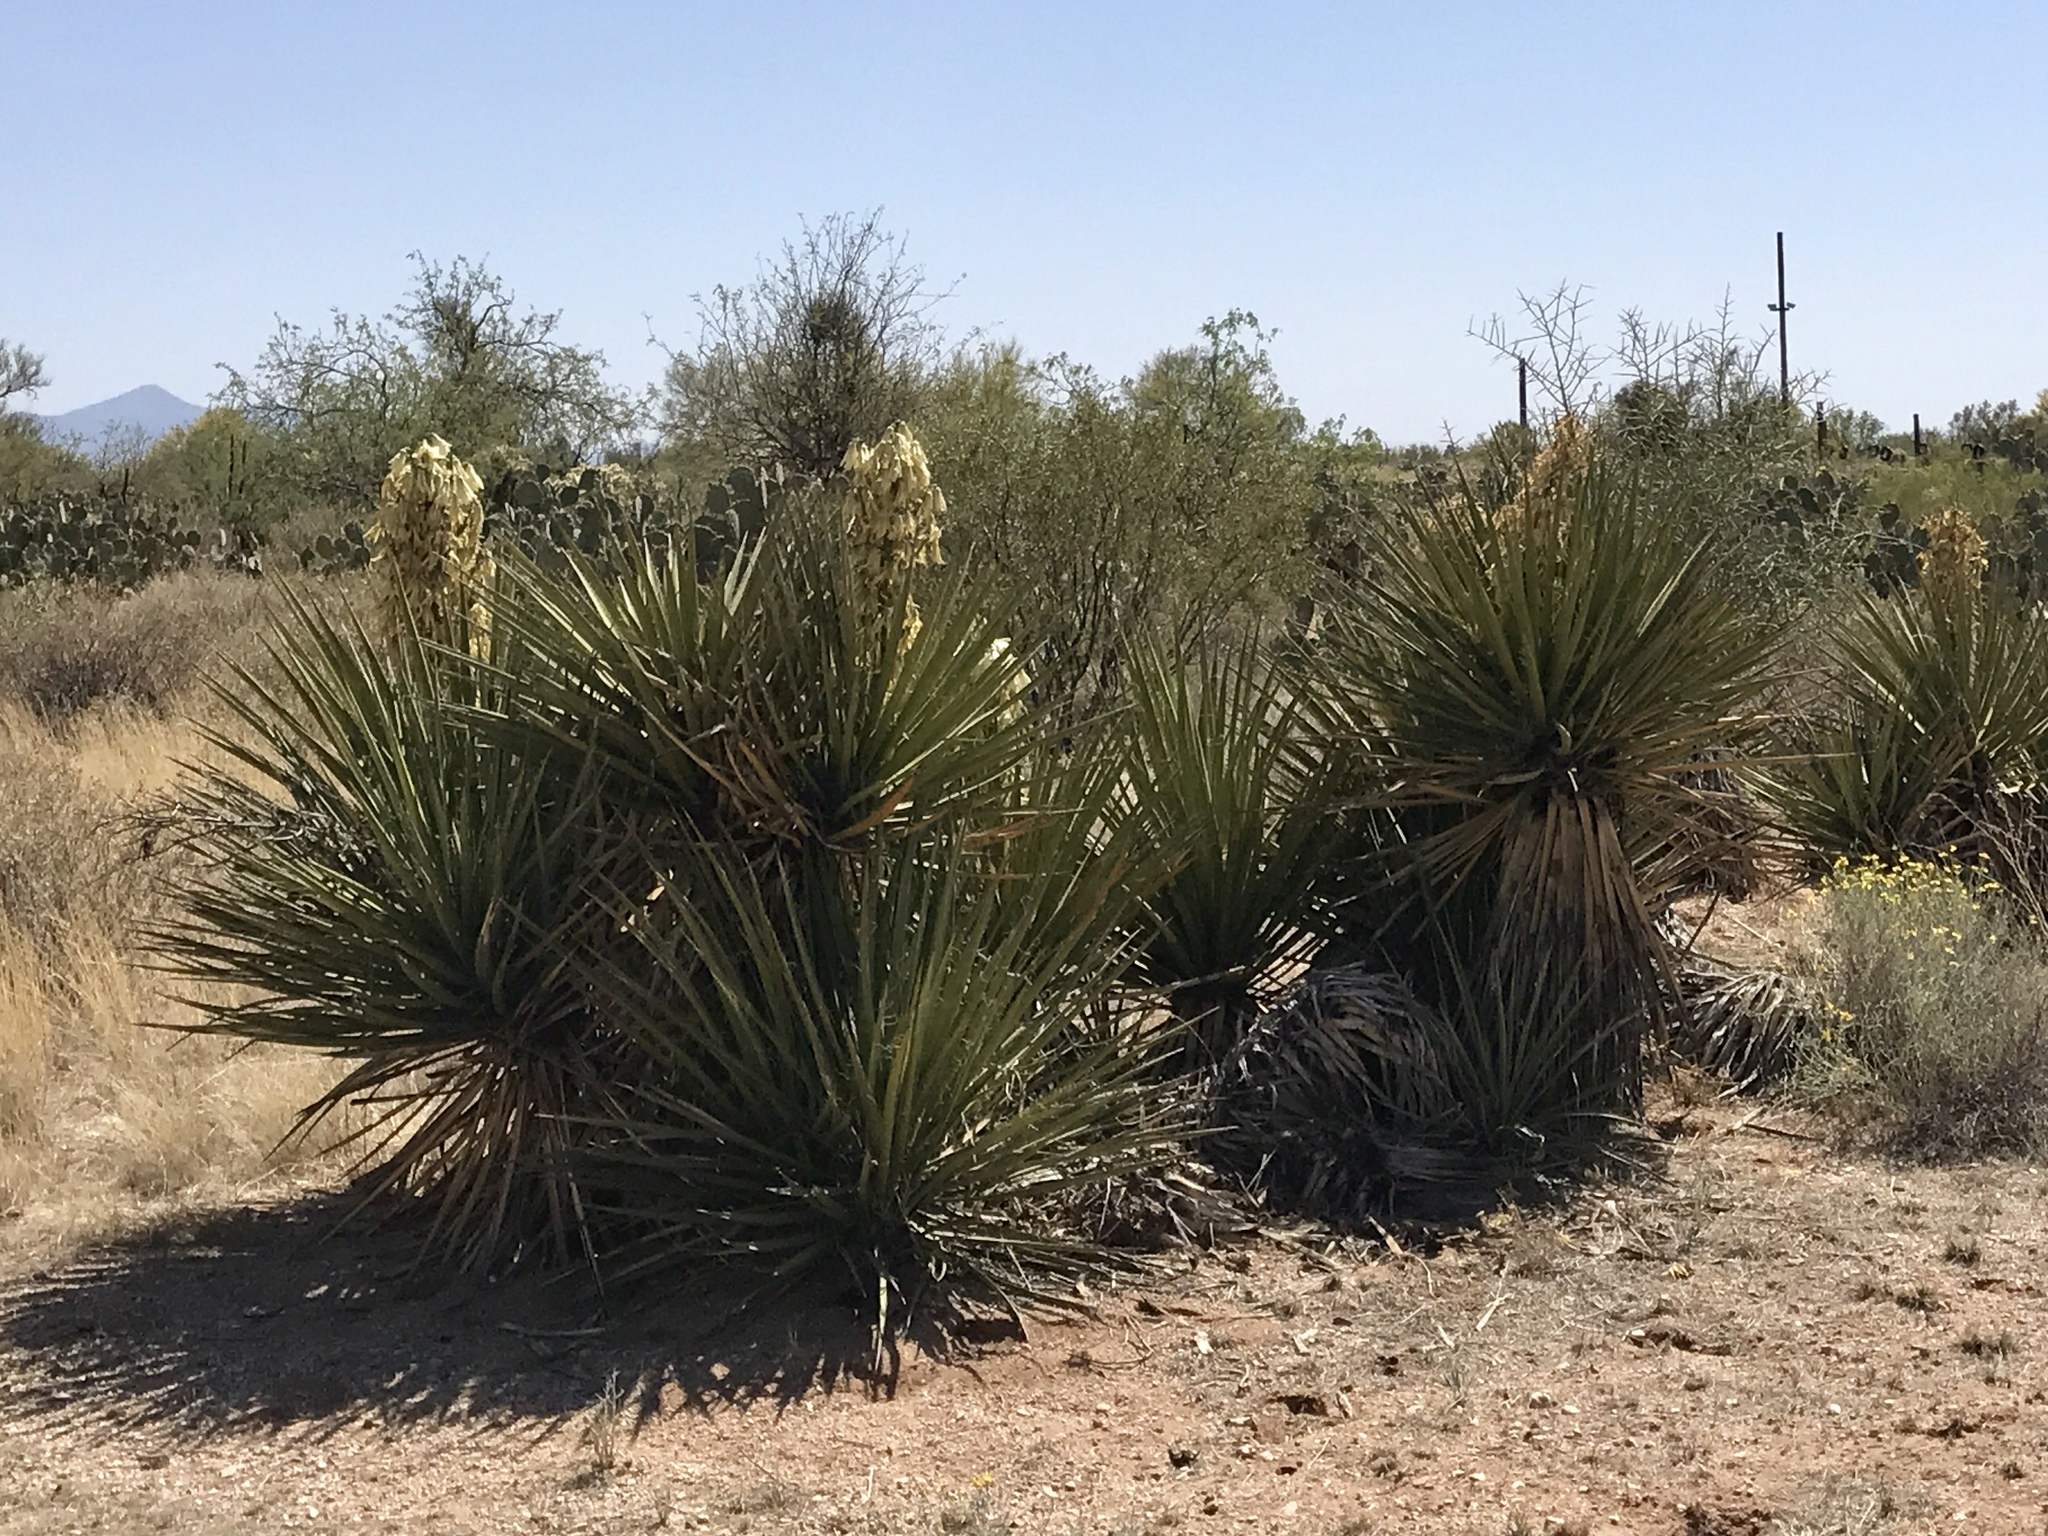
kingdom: Plantae
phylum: Tracheophyta
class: Liliopsida
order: Asparagales
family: Asparagaceae
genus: Yucca
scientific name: Yucca baccata
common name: Banana yucca
